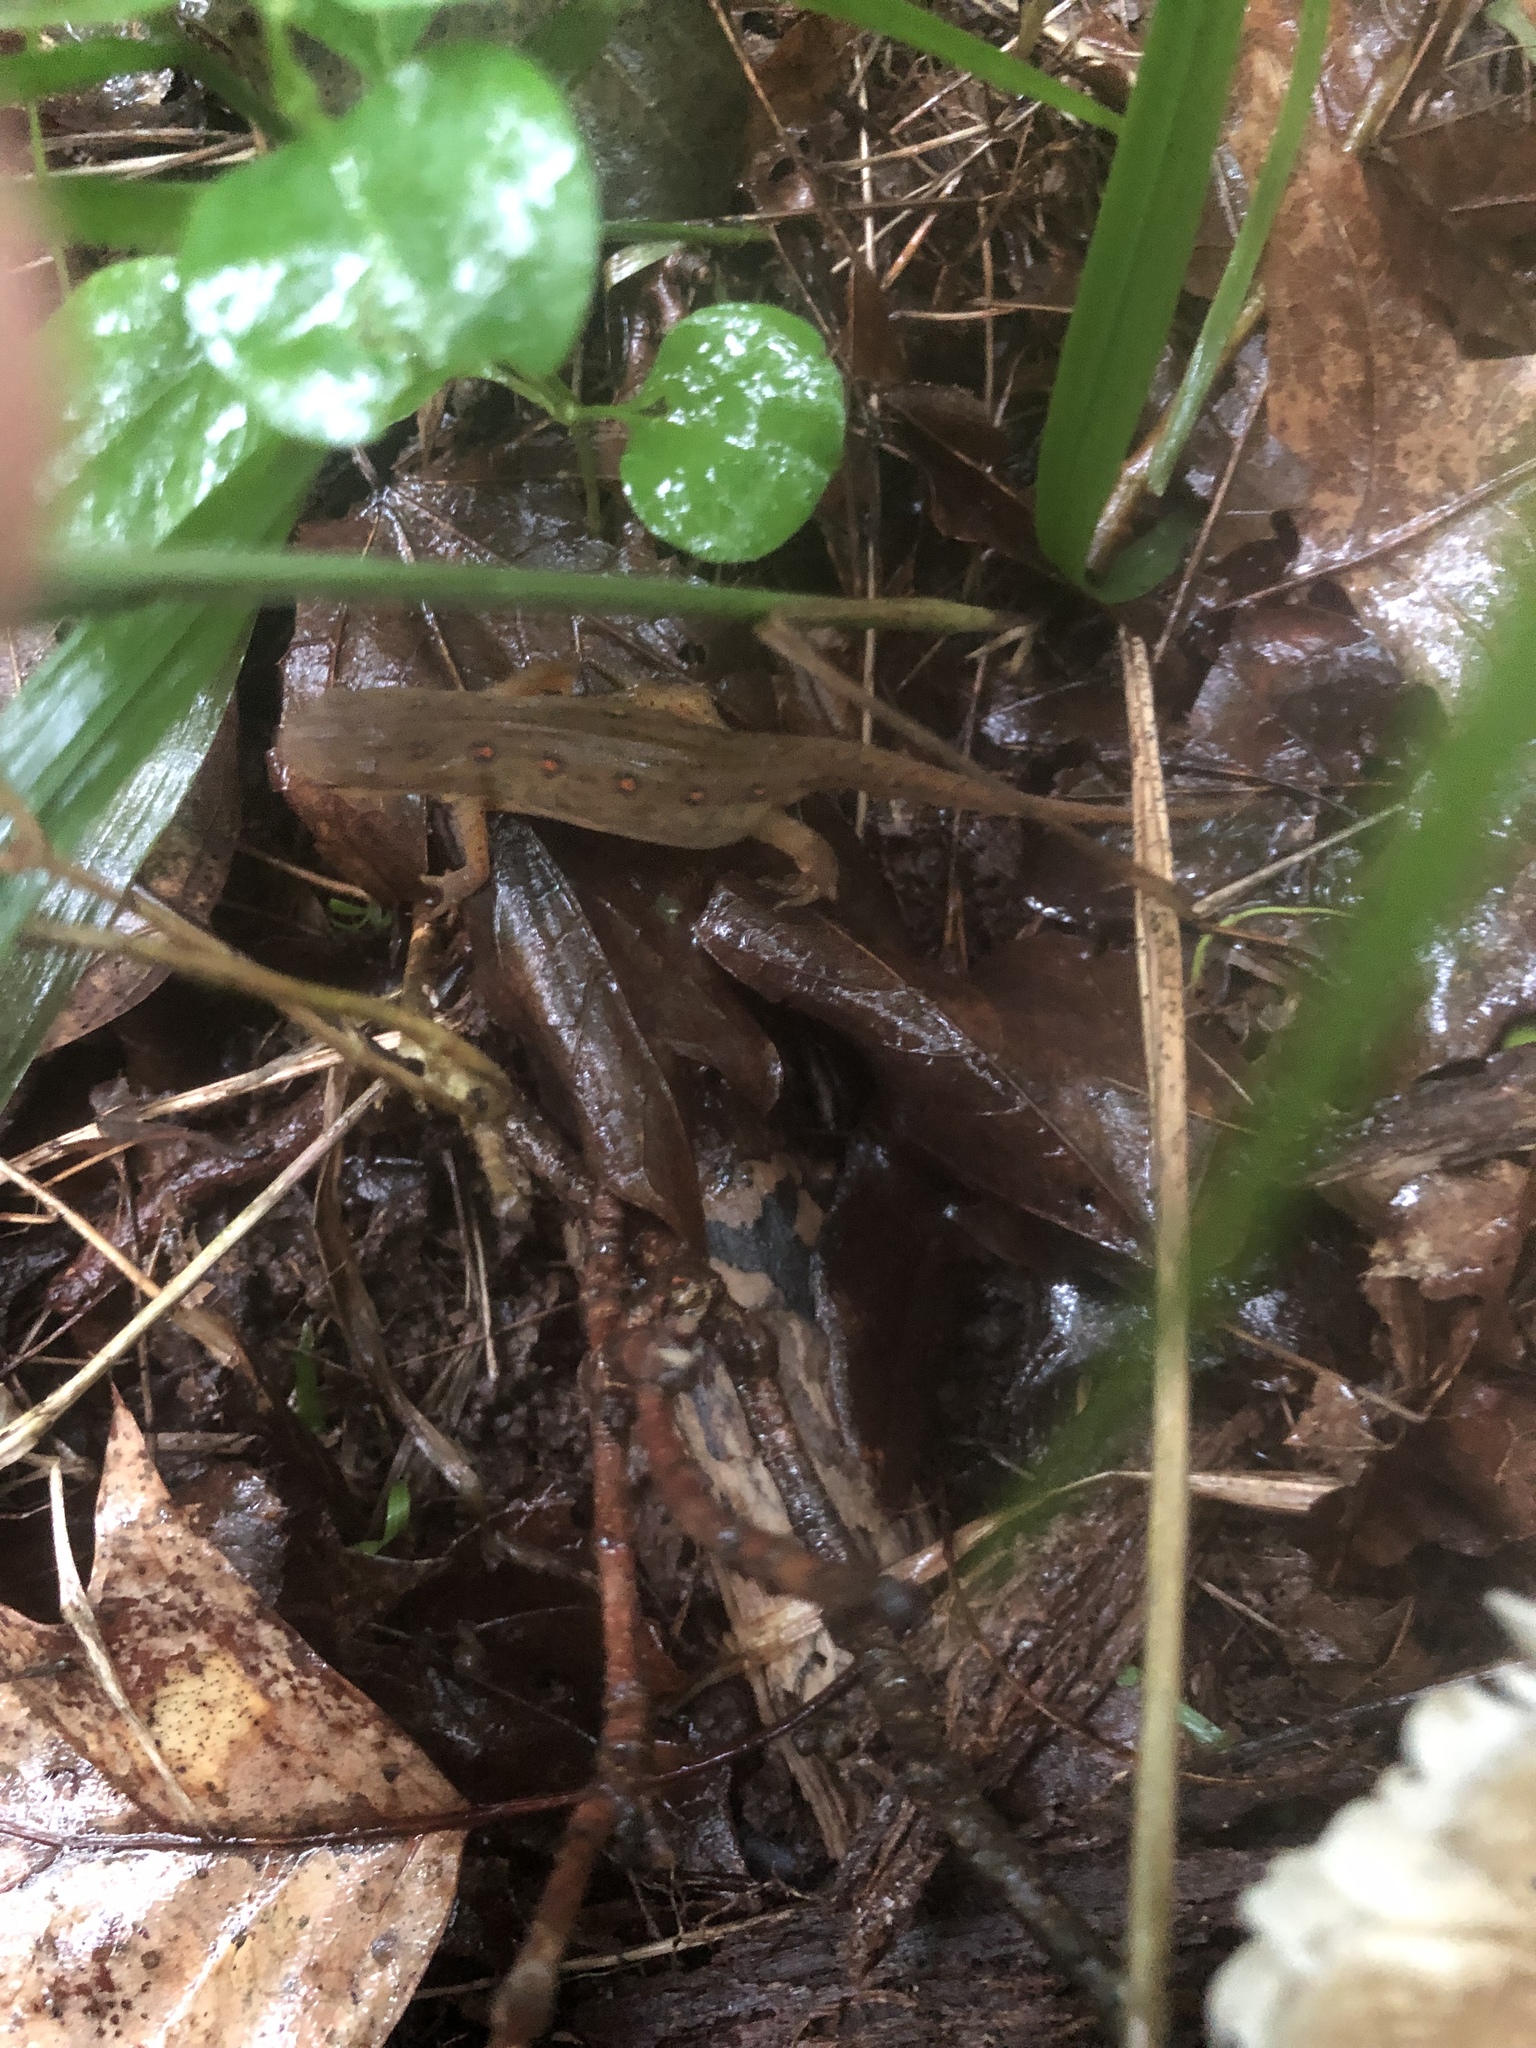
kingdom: Animalia
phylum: Chordata
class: Amphibia
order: Caudata
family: Salamandridae
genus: Notophthalmus
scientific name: Notophthalmus viridescens
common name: Eastern newt
